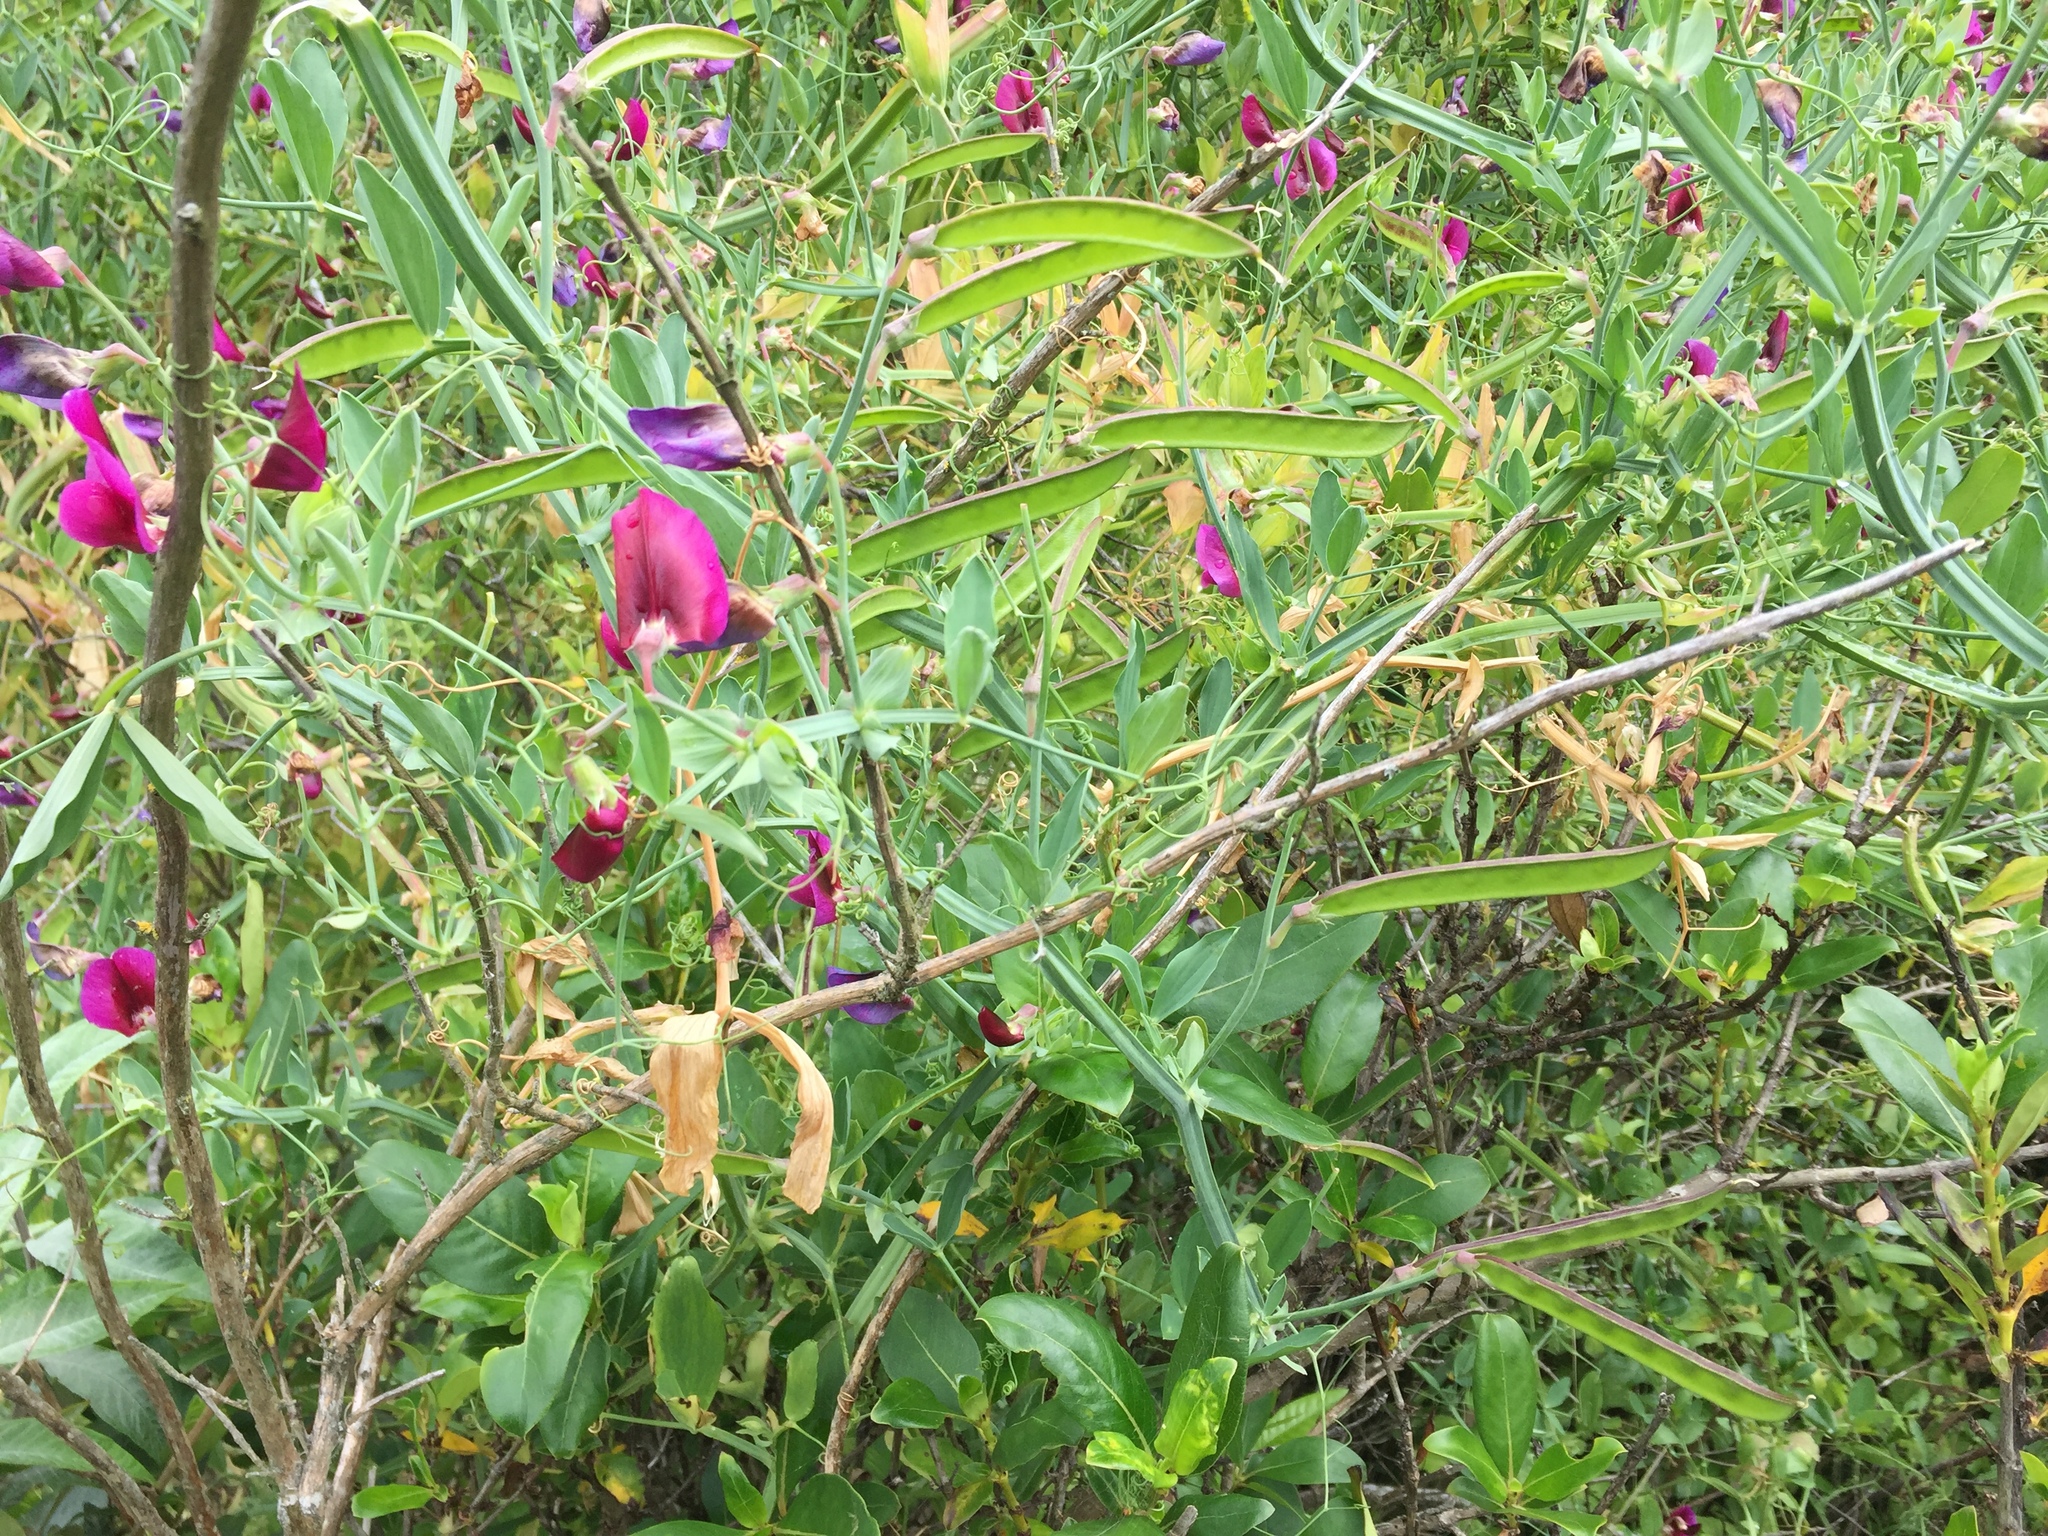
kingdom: Plantae
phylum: Tracheophyta
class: Magnoliopsida
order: Fabales
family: Fabaceae
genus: Lathyrus
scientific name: Lathyrus tingitanus
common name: Tangier pea
